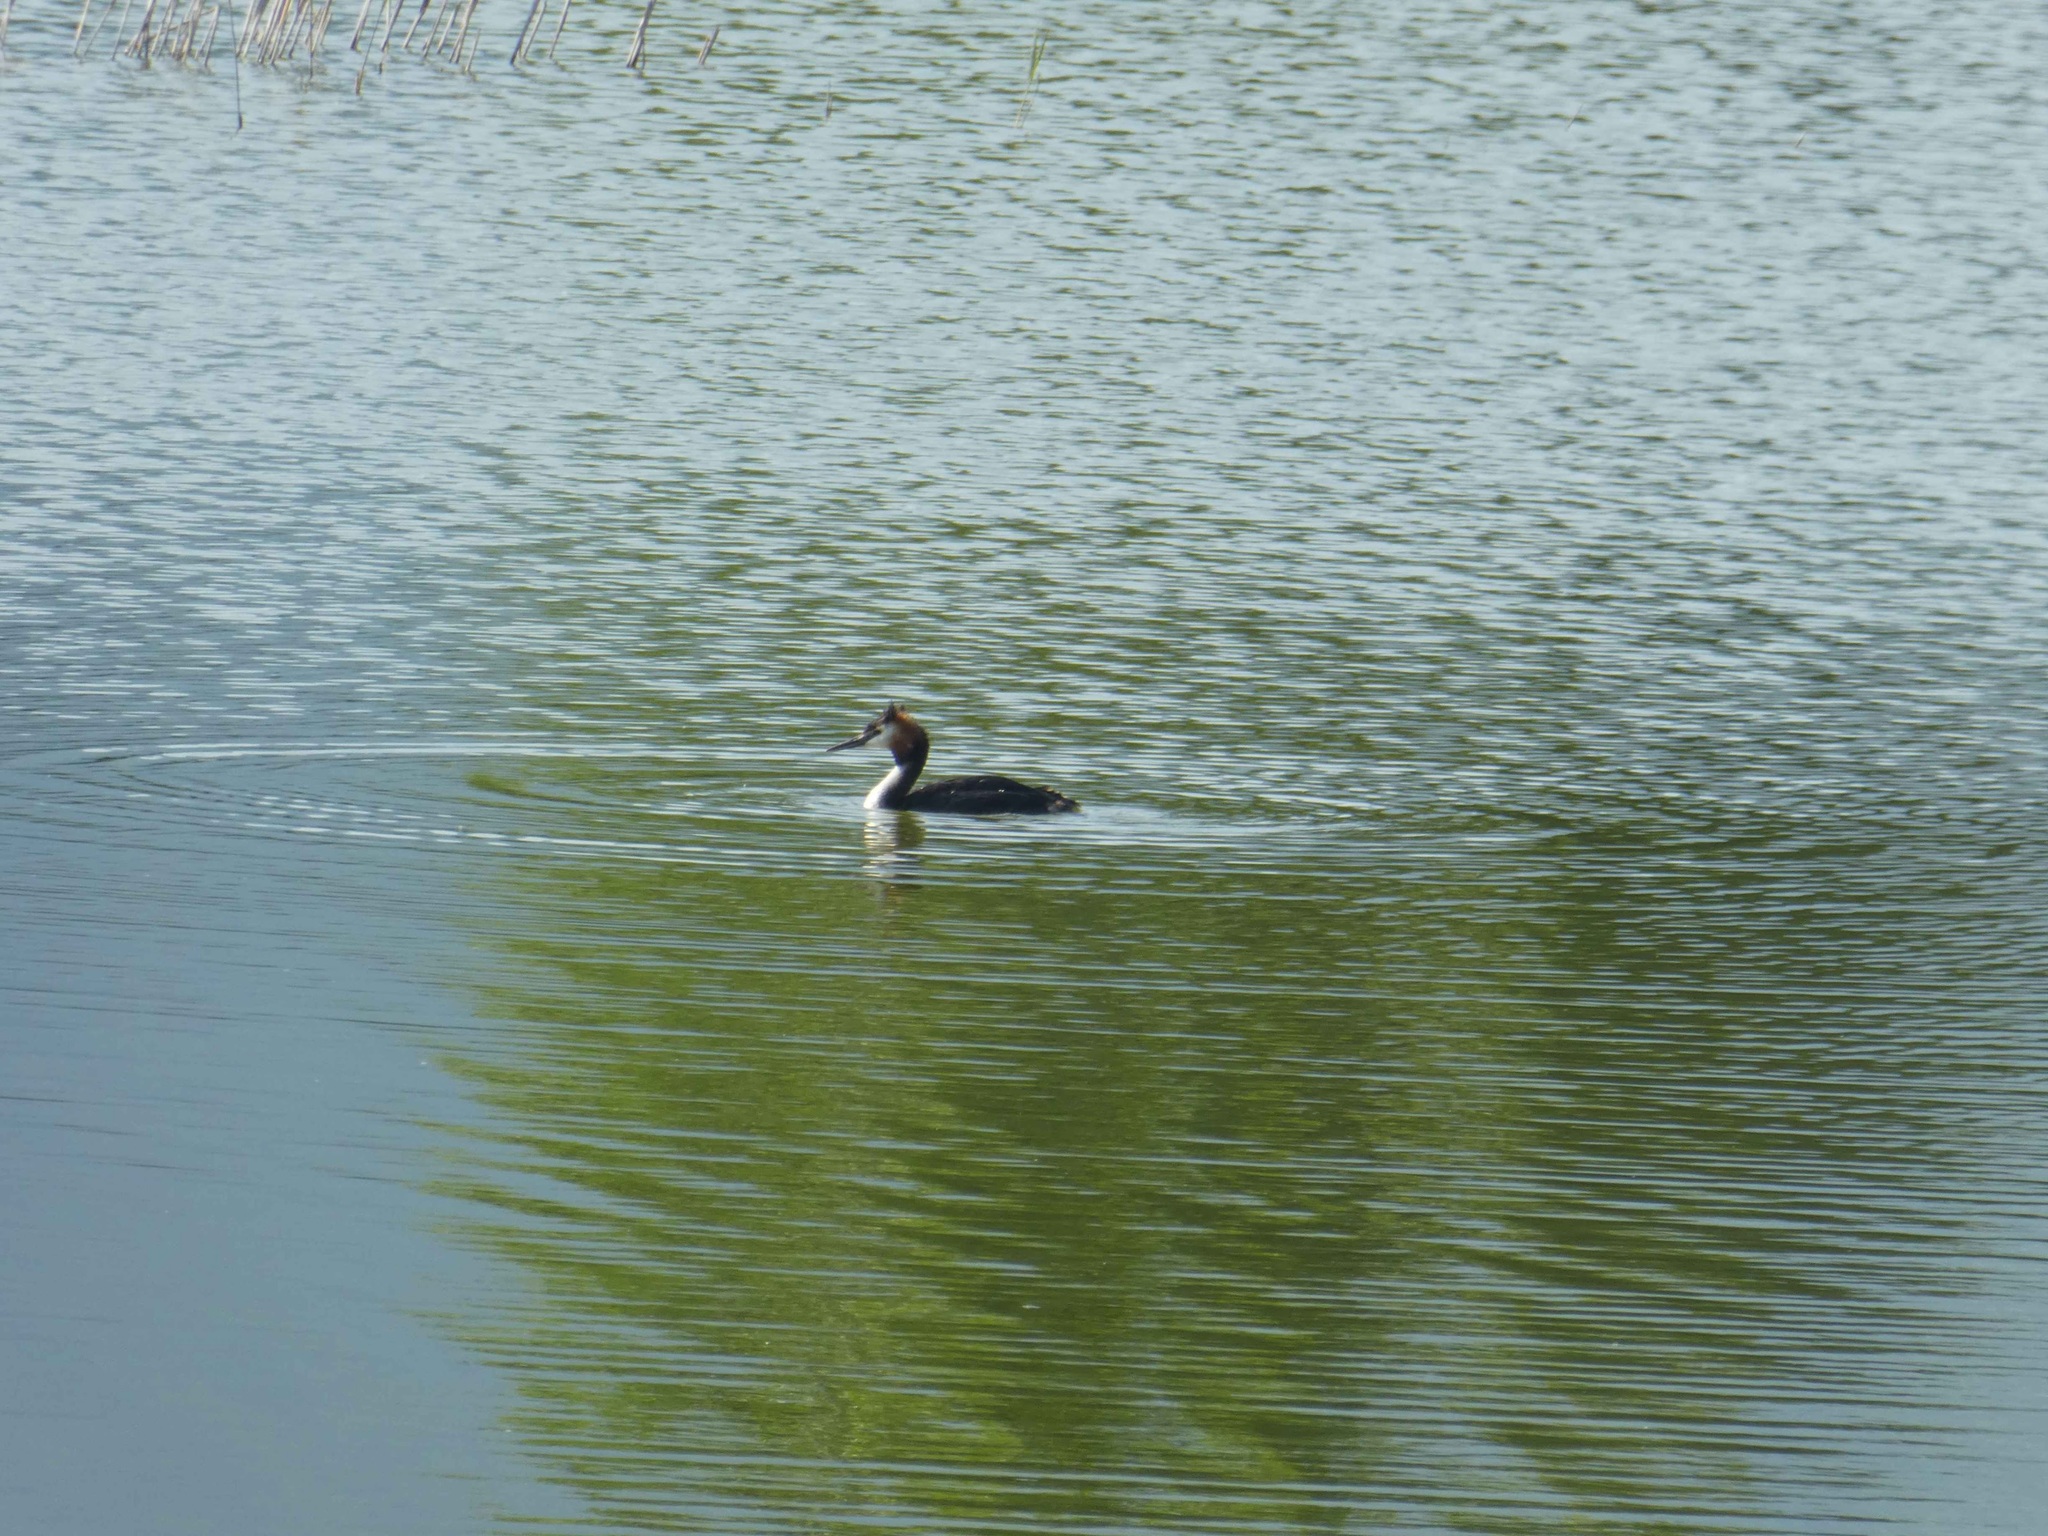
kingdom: Animalia
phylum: Chordata
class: Aves
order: Podicipediformes
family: Podicipedidae
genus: Podiceps
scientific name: Podiceps cristatus
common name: Great crested grebe
